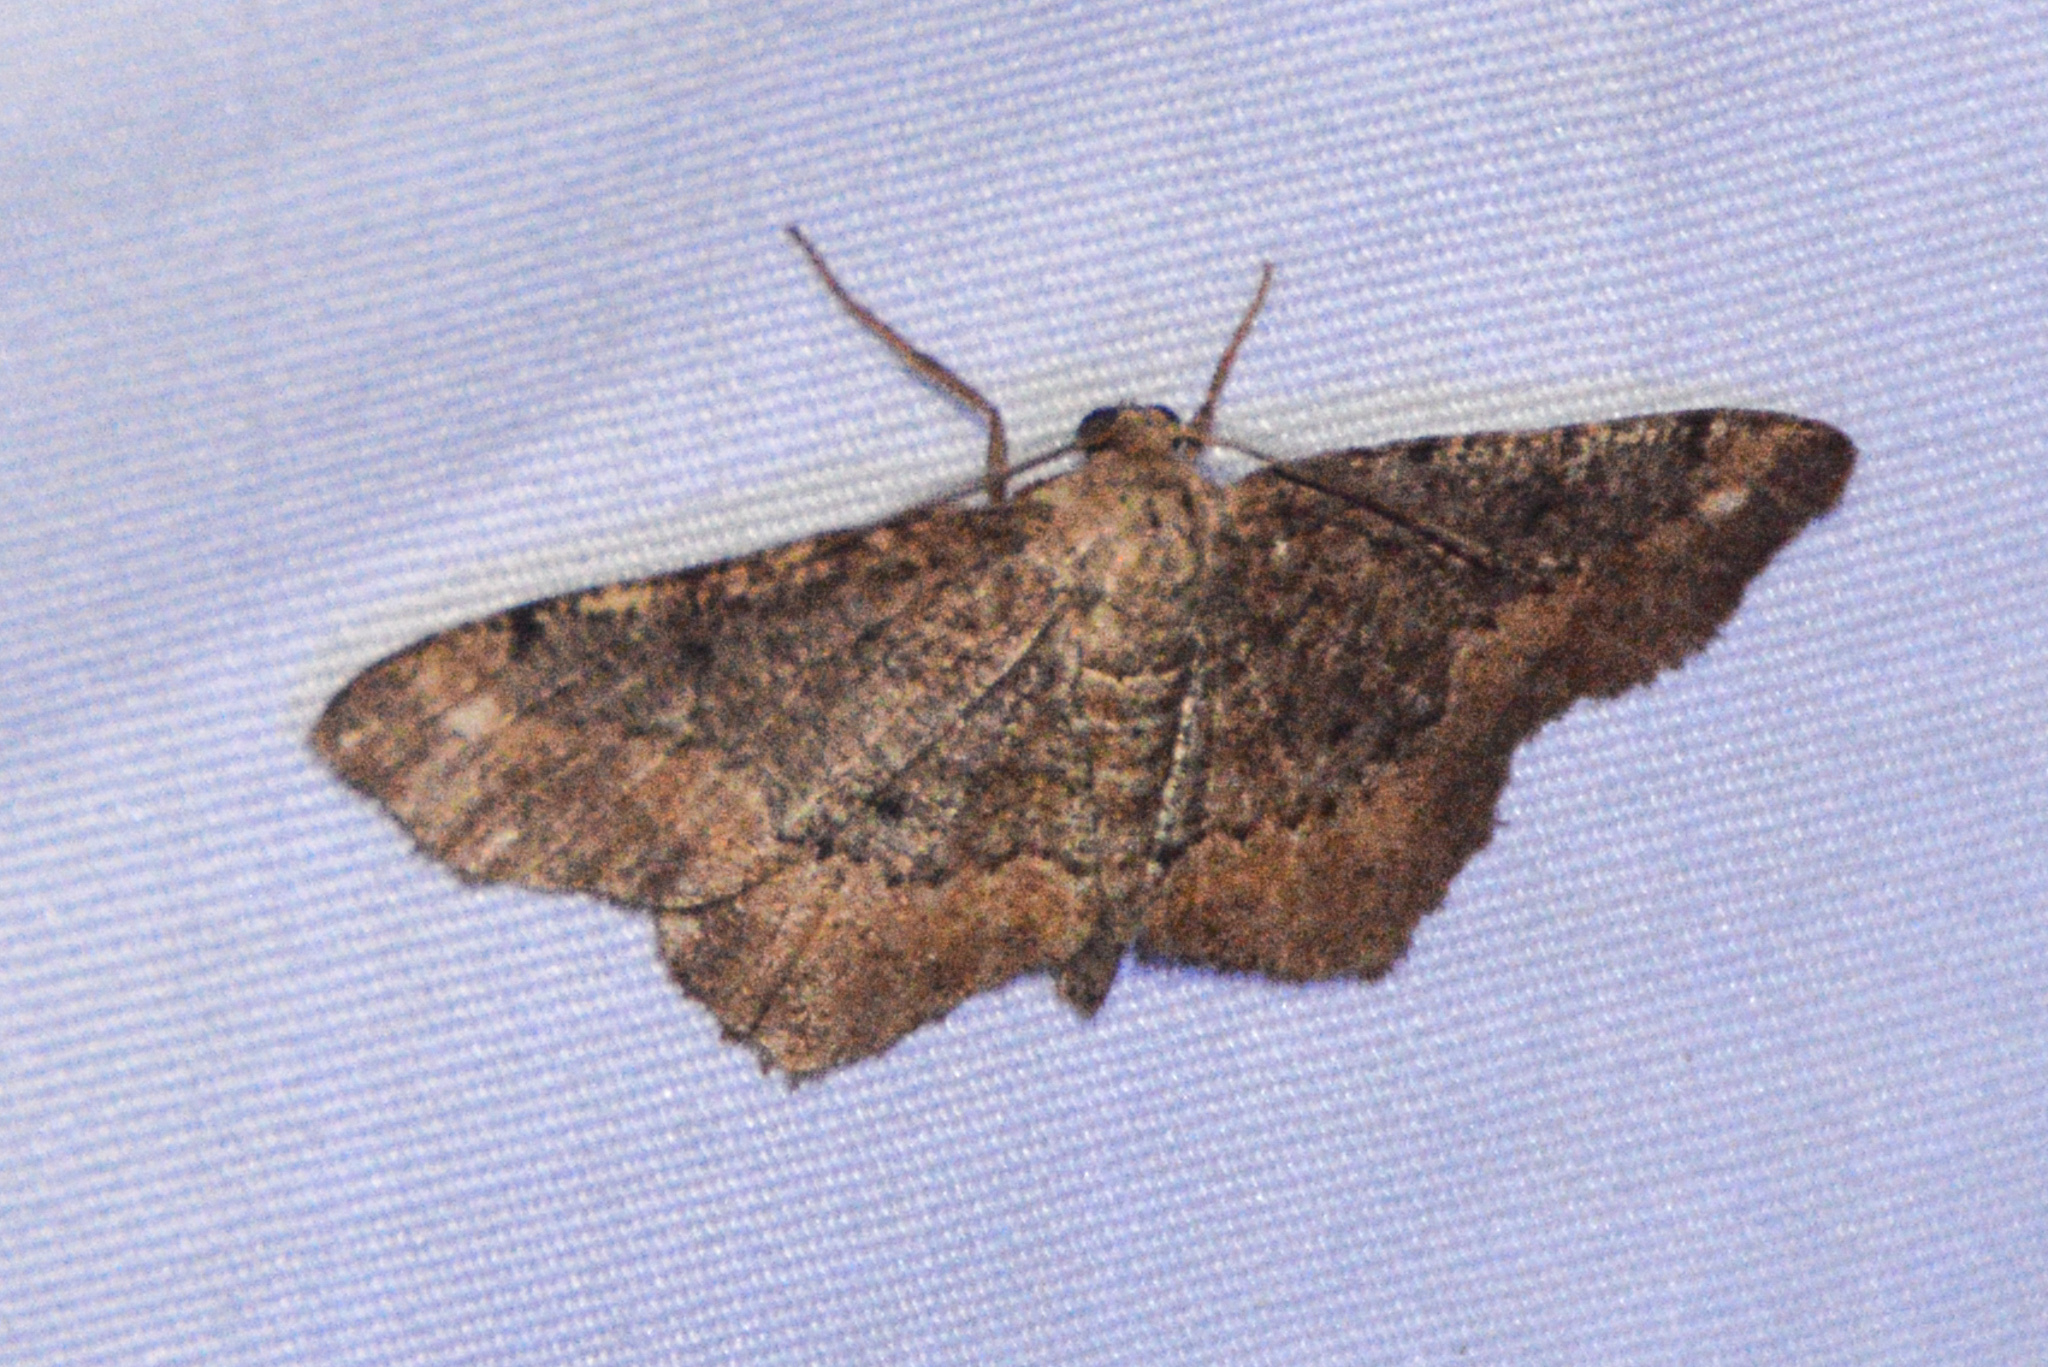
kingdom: Animalia
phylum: Arthropoda
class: Insecta
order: Lepidoptera
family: Geometridae
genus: Hypagyrtis
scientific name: Hypagyrtis esther
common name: Esther moth
